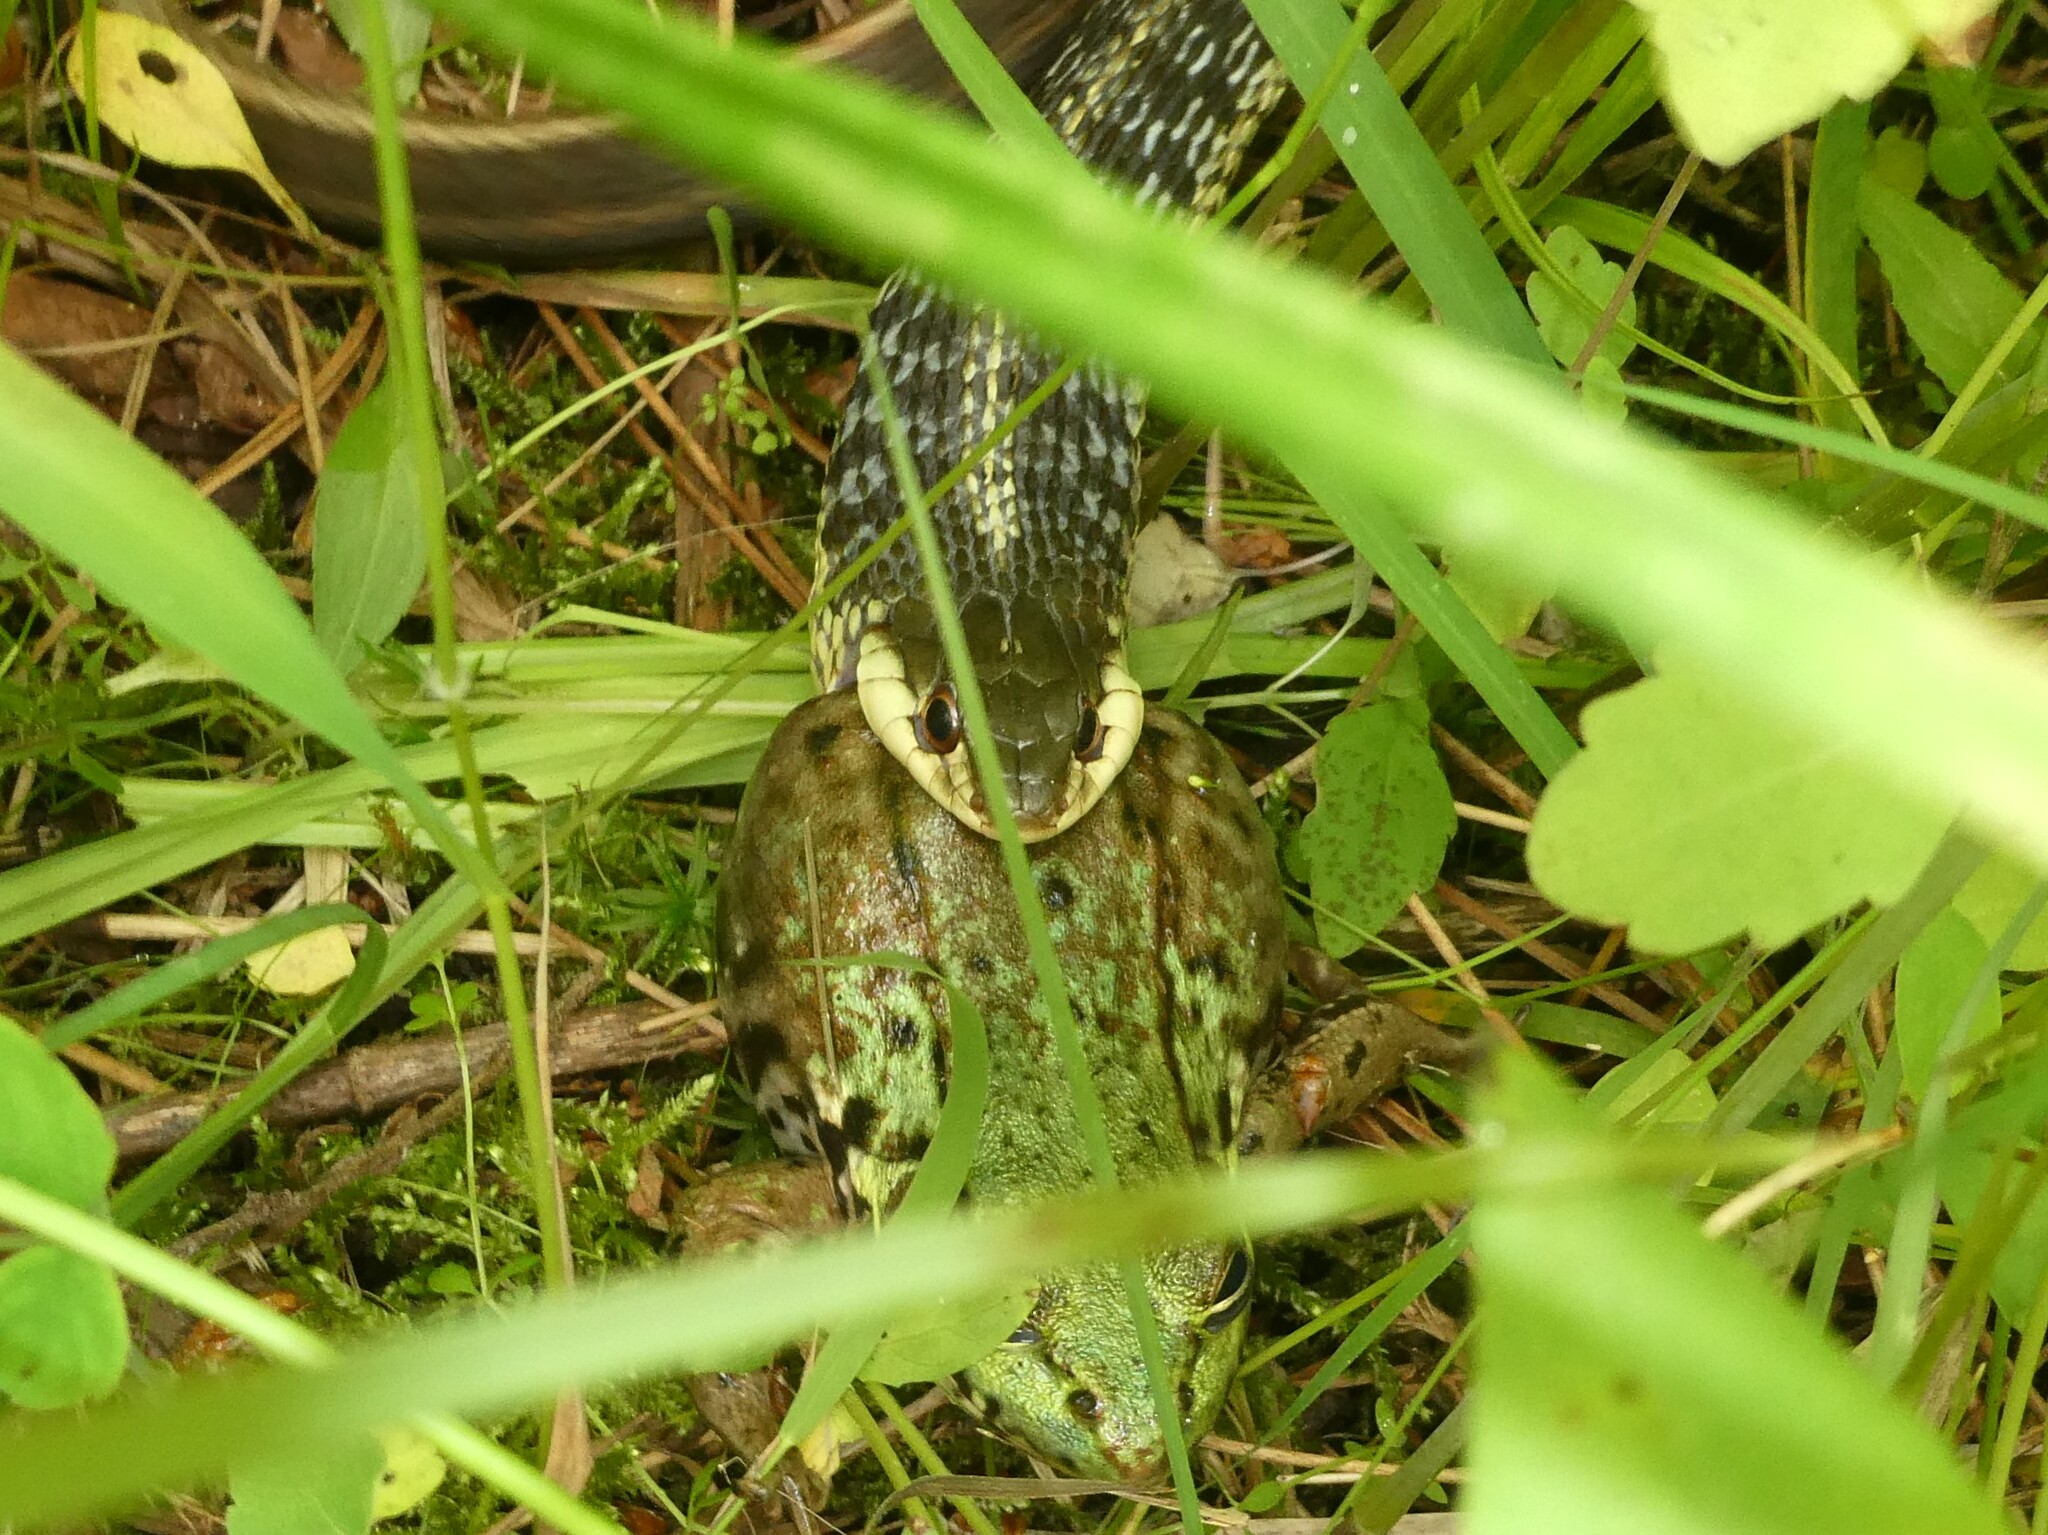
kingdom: Animalia
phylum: Chordata
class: Squamata
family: Colubridae
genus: Thamnophis
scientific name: Thamnophis sirtalis
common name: Common garter snake
